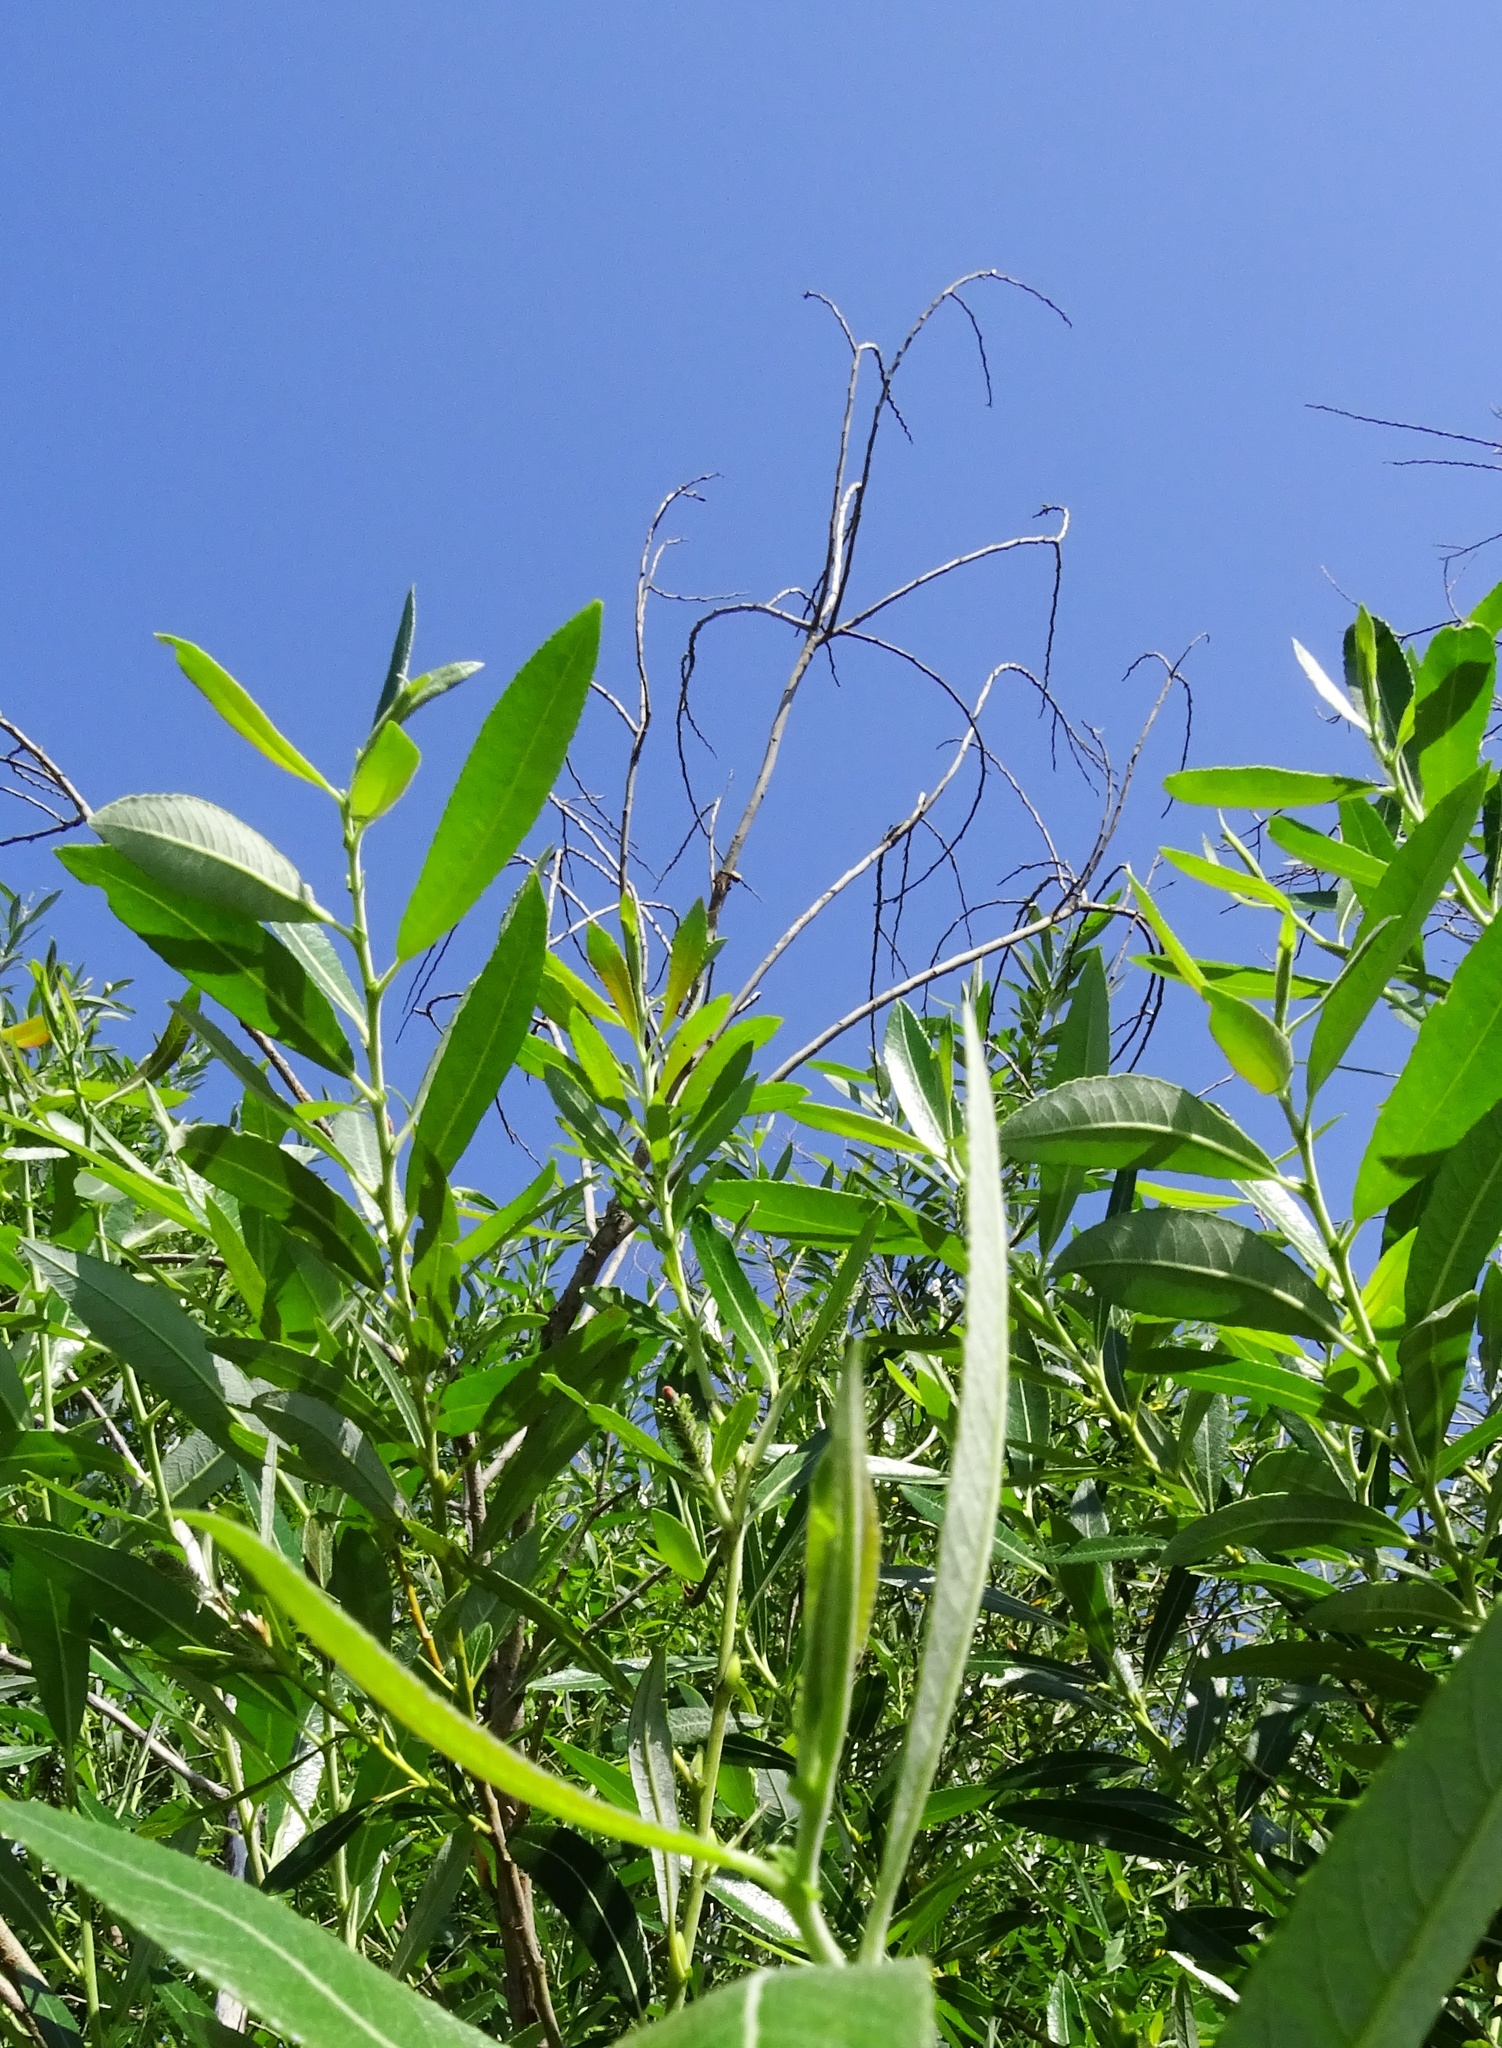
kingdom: Plantae
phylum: Tracheophyta
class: Magnoliopsida
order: Malpighiales
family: Salicaceae
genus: Salix
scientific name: Salix gooddingii
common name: Goodding's willow
